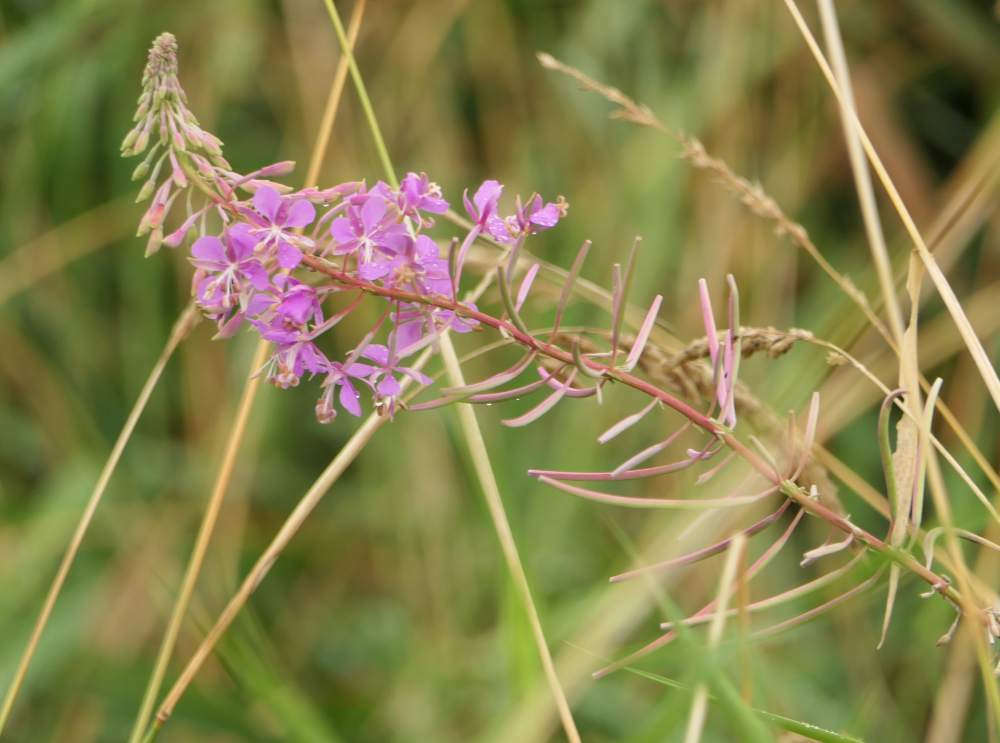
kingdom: Plantae
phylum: Tracheophyta
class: Magnoliopsida
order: Myrtales
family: Onagraceae
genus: Chamaenerion
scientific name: Chamaenerion angustifolium
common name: Fireweed
